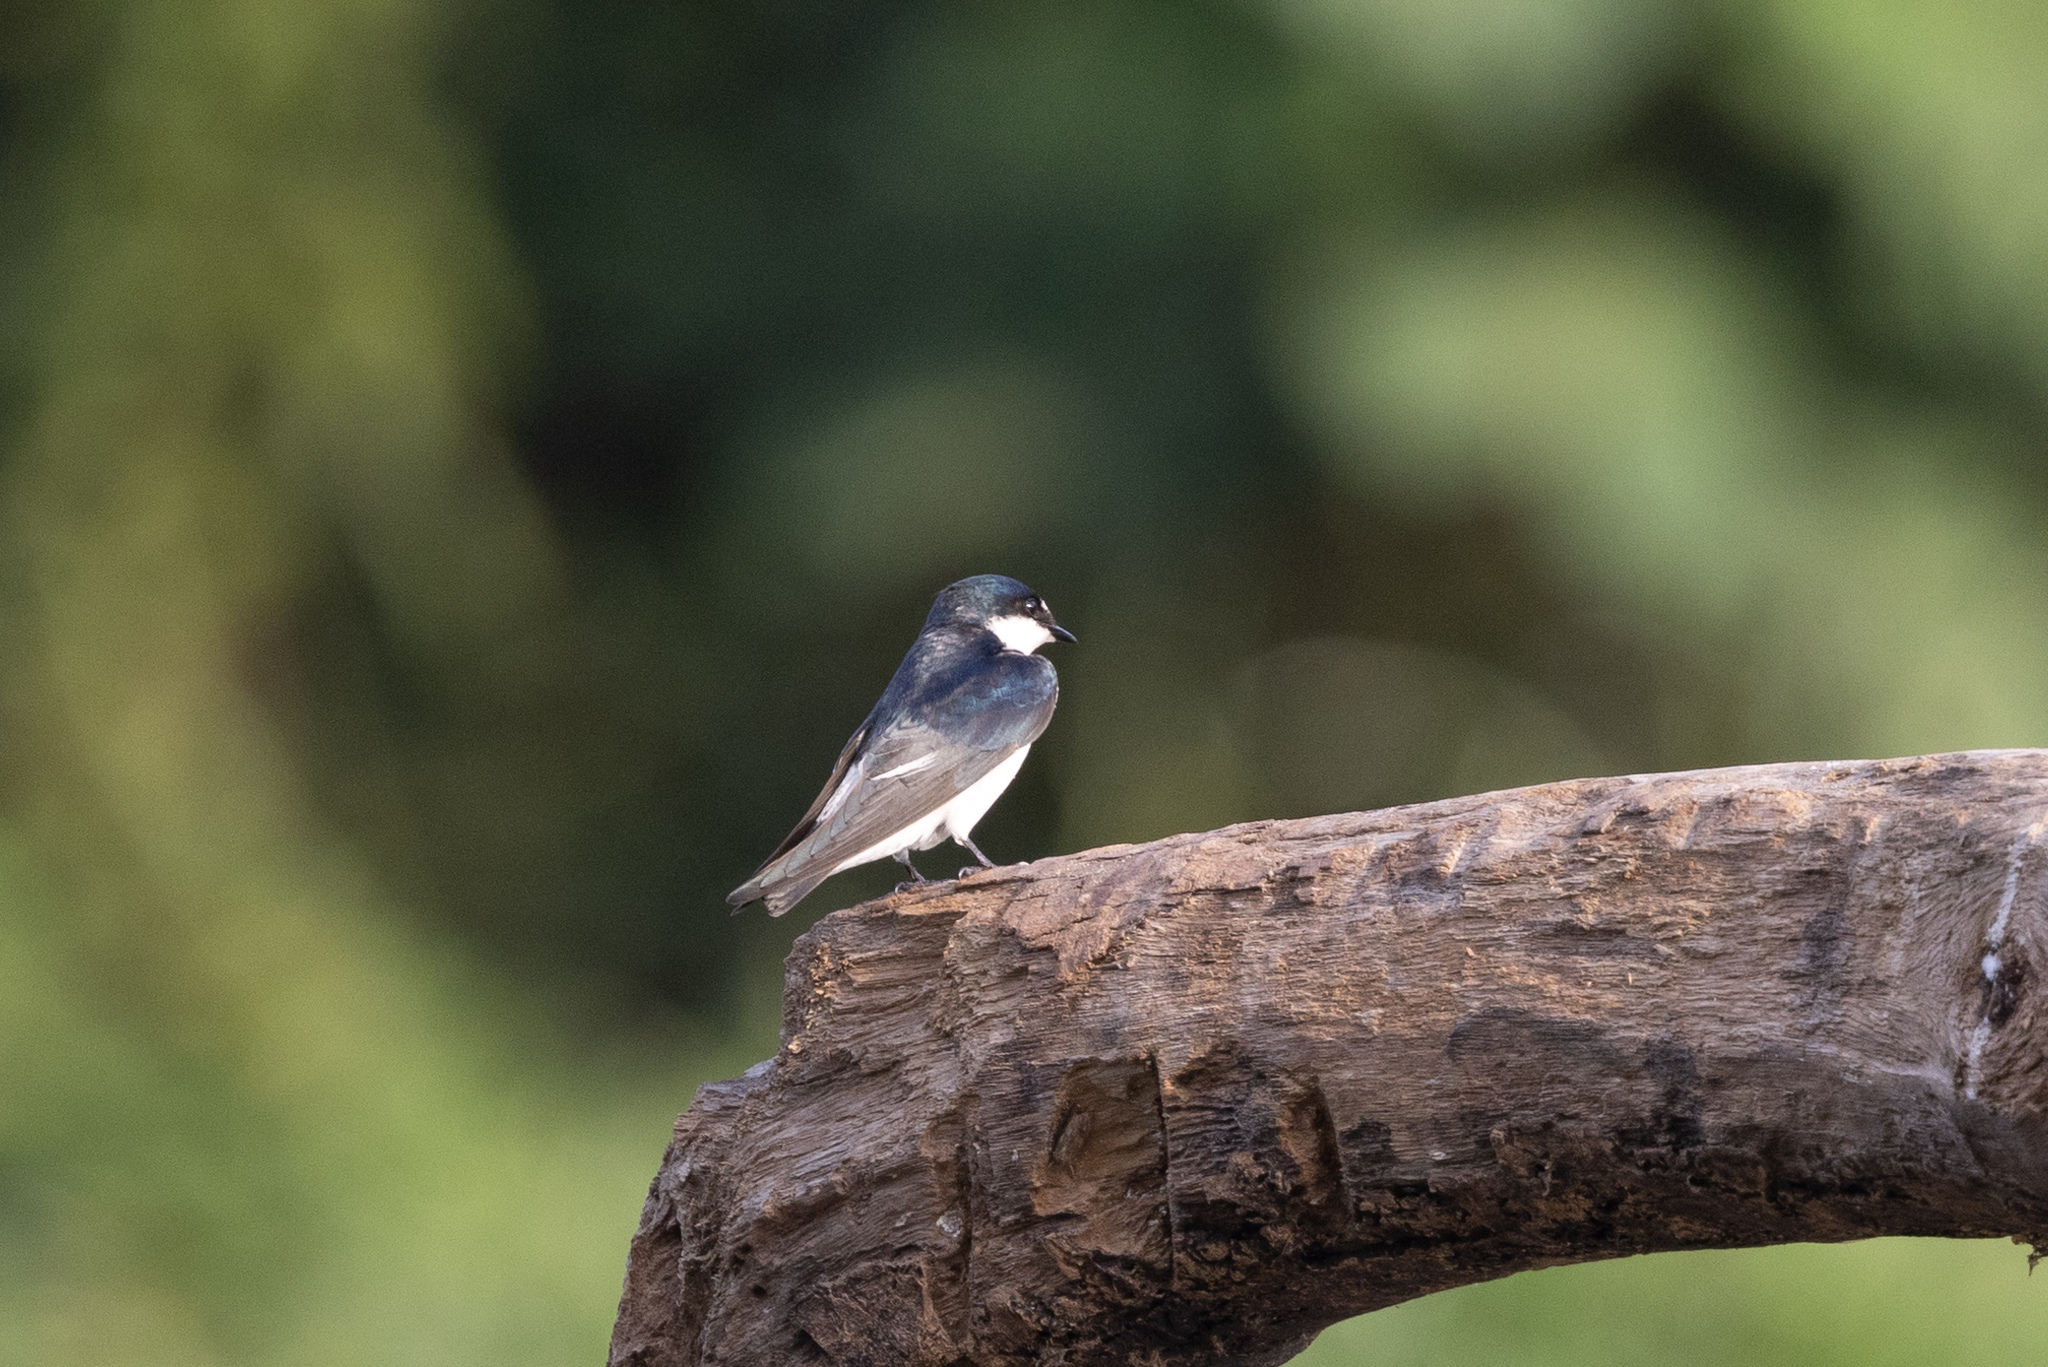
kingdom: Animalia
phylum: Chordata
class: Aves
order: Passeriformes
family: Hirundinidae
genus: Tachycineta
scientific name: Tachycineta albilinea
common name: Mangrove swallow
